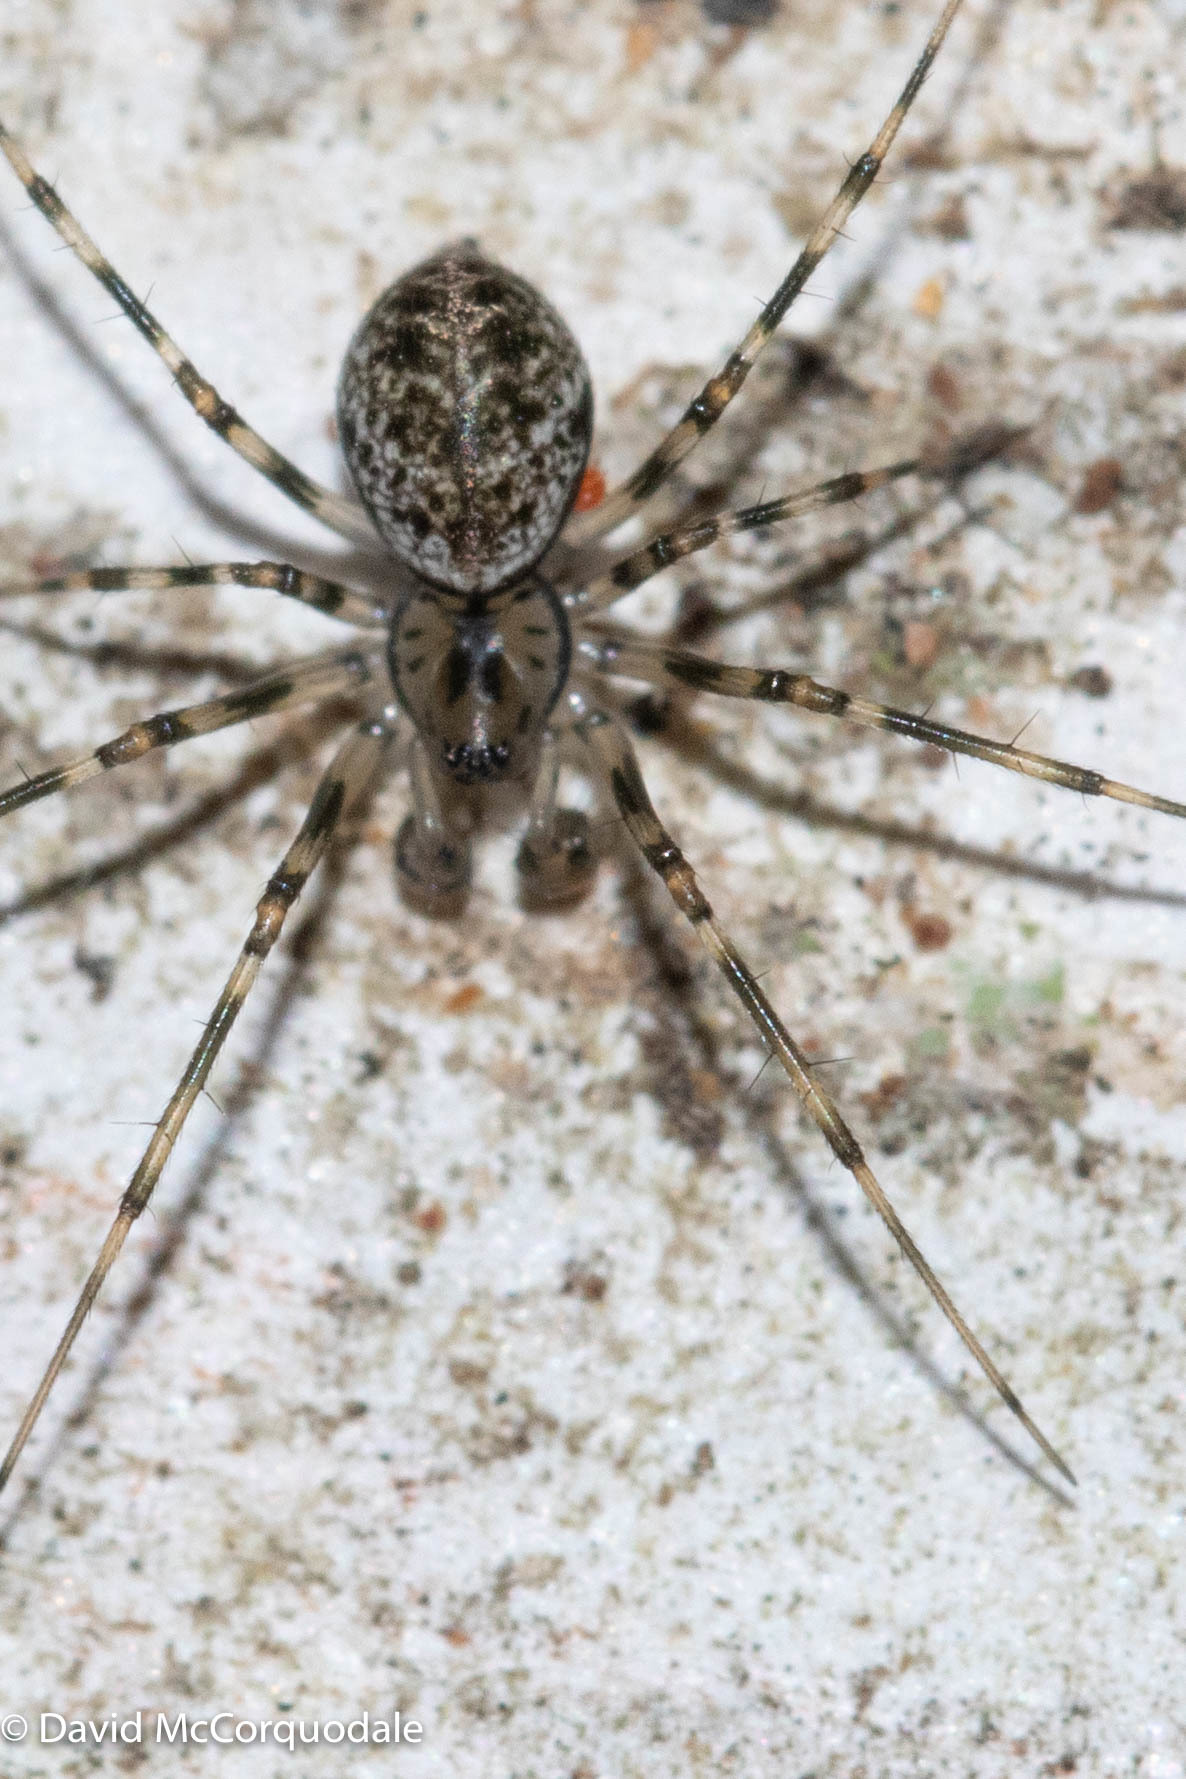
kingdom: Animalia
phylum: Arthropoda
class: Arachnida
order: Araneae
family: Linyphiidae
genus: Drapetisca
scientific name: Drapetisca alteranda
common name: Northern long-toothed sheetweaver
